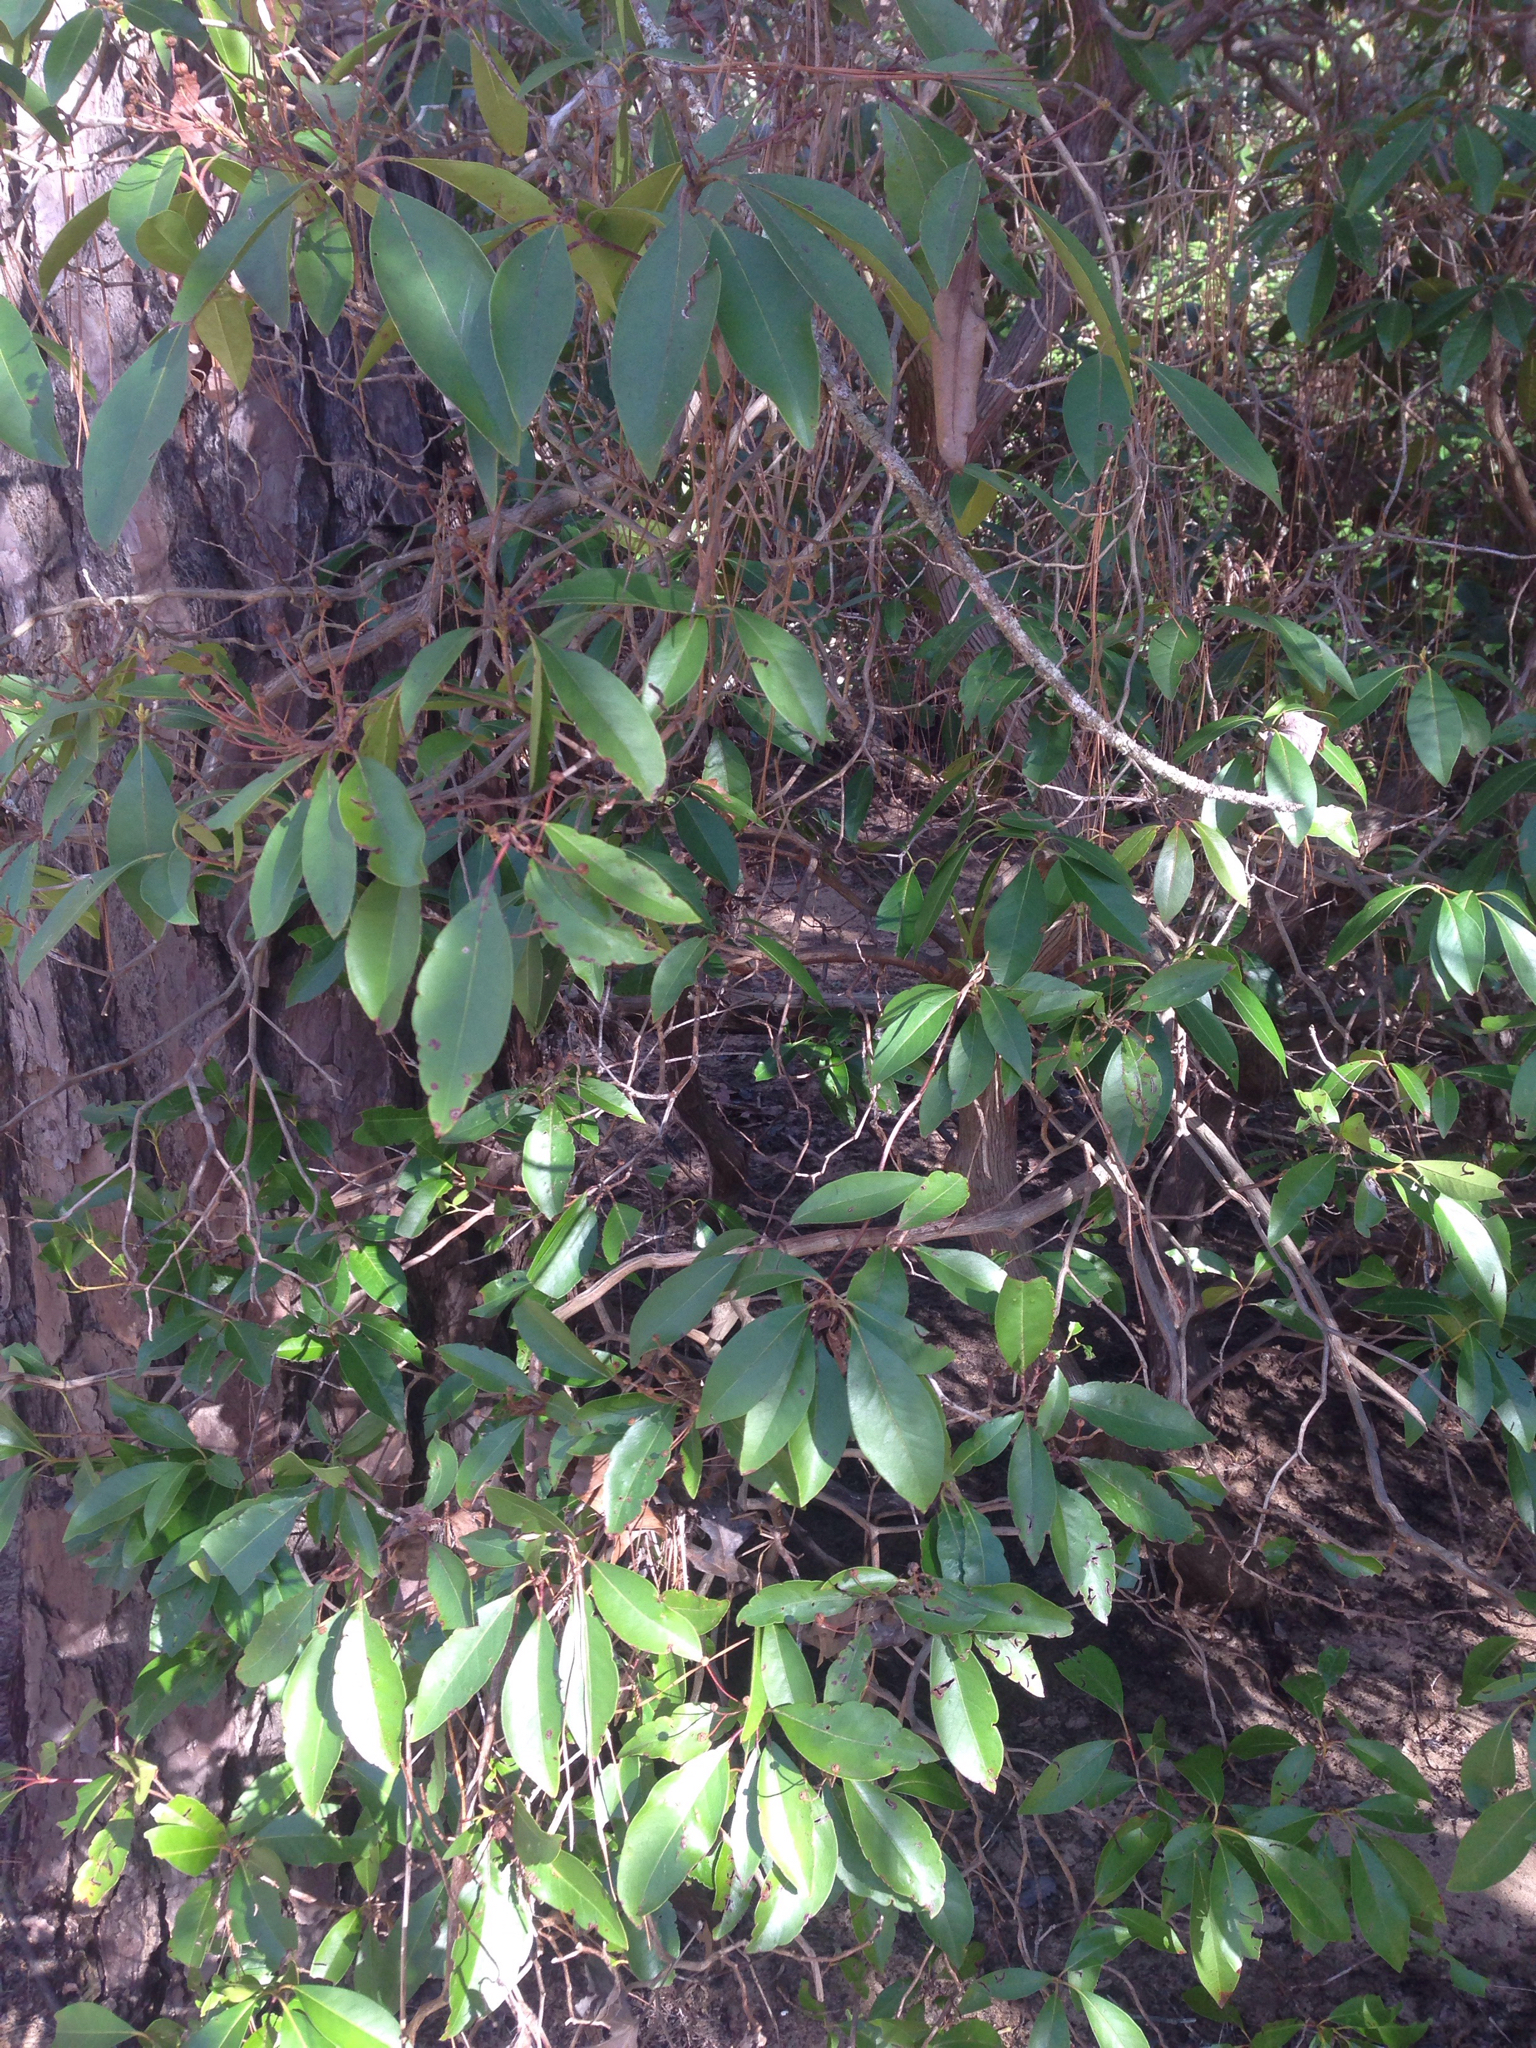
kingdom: Plantae
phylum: Tracheophyta
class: Magnoliopsida
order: Ericales
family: Ericaceae
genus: Kalmia
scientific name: Kalmia latifolia
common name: Mountain-laurel
